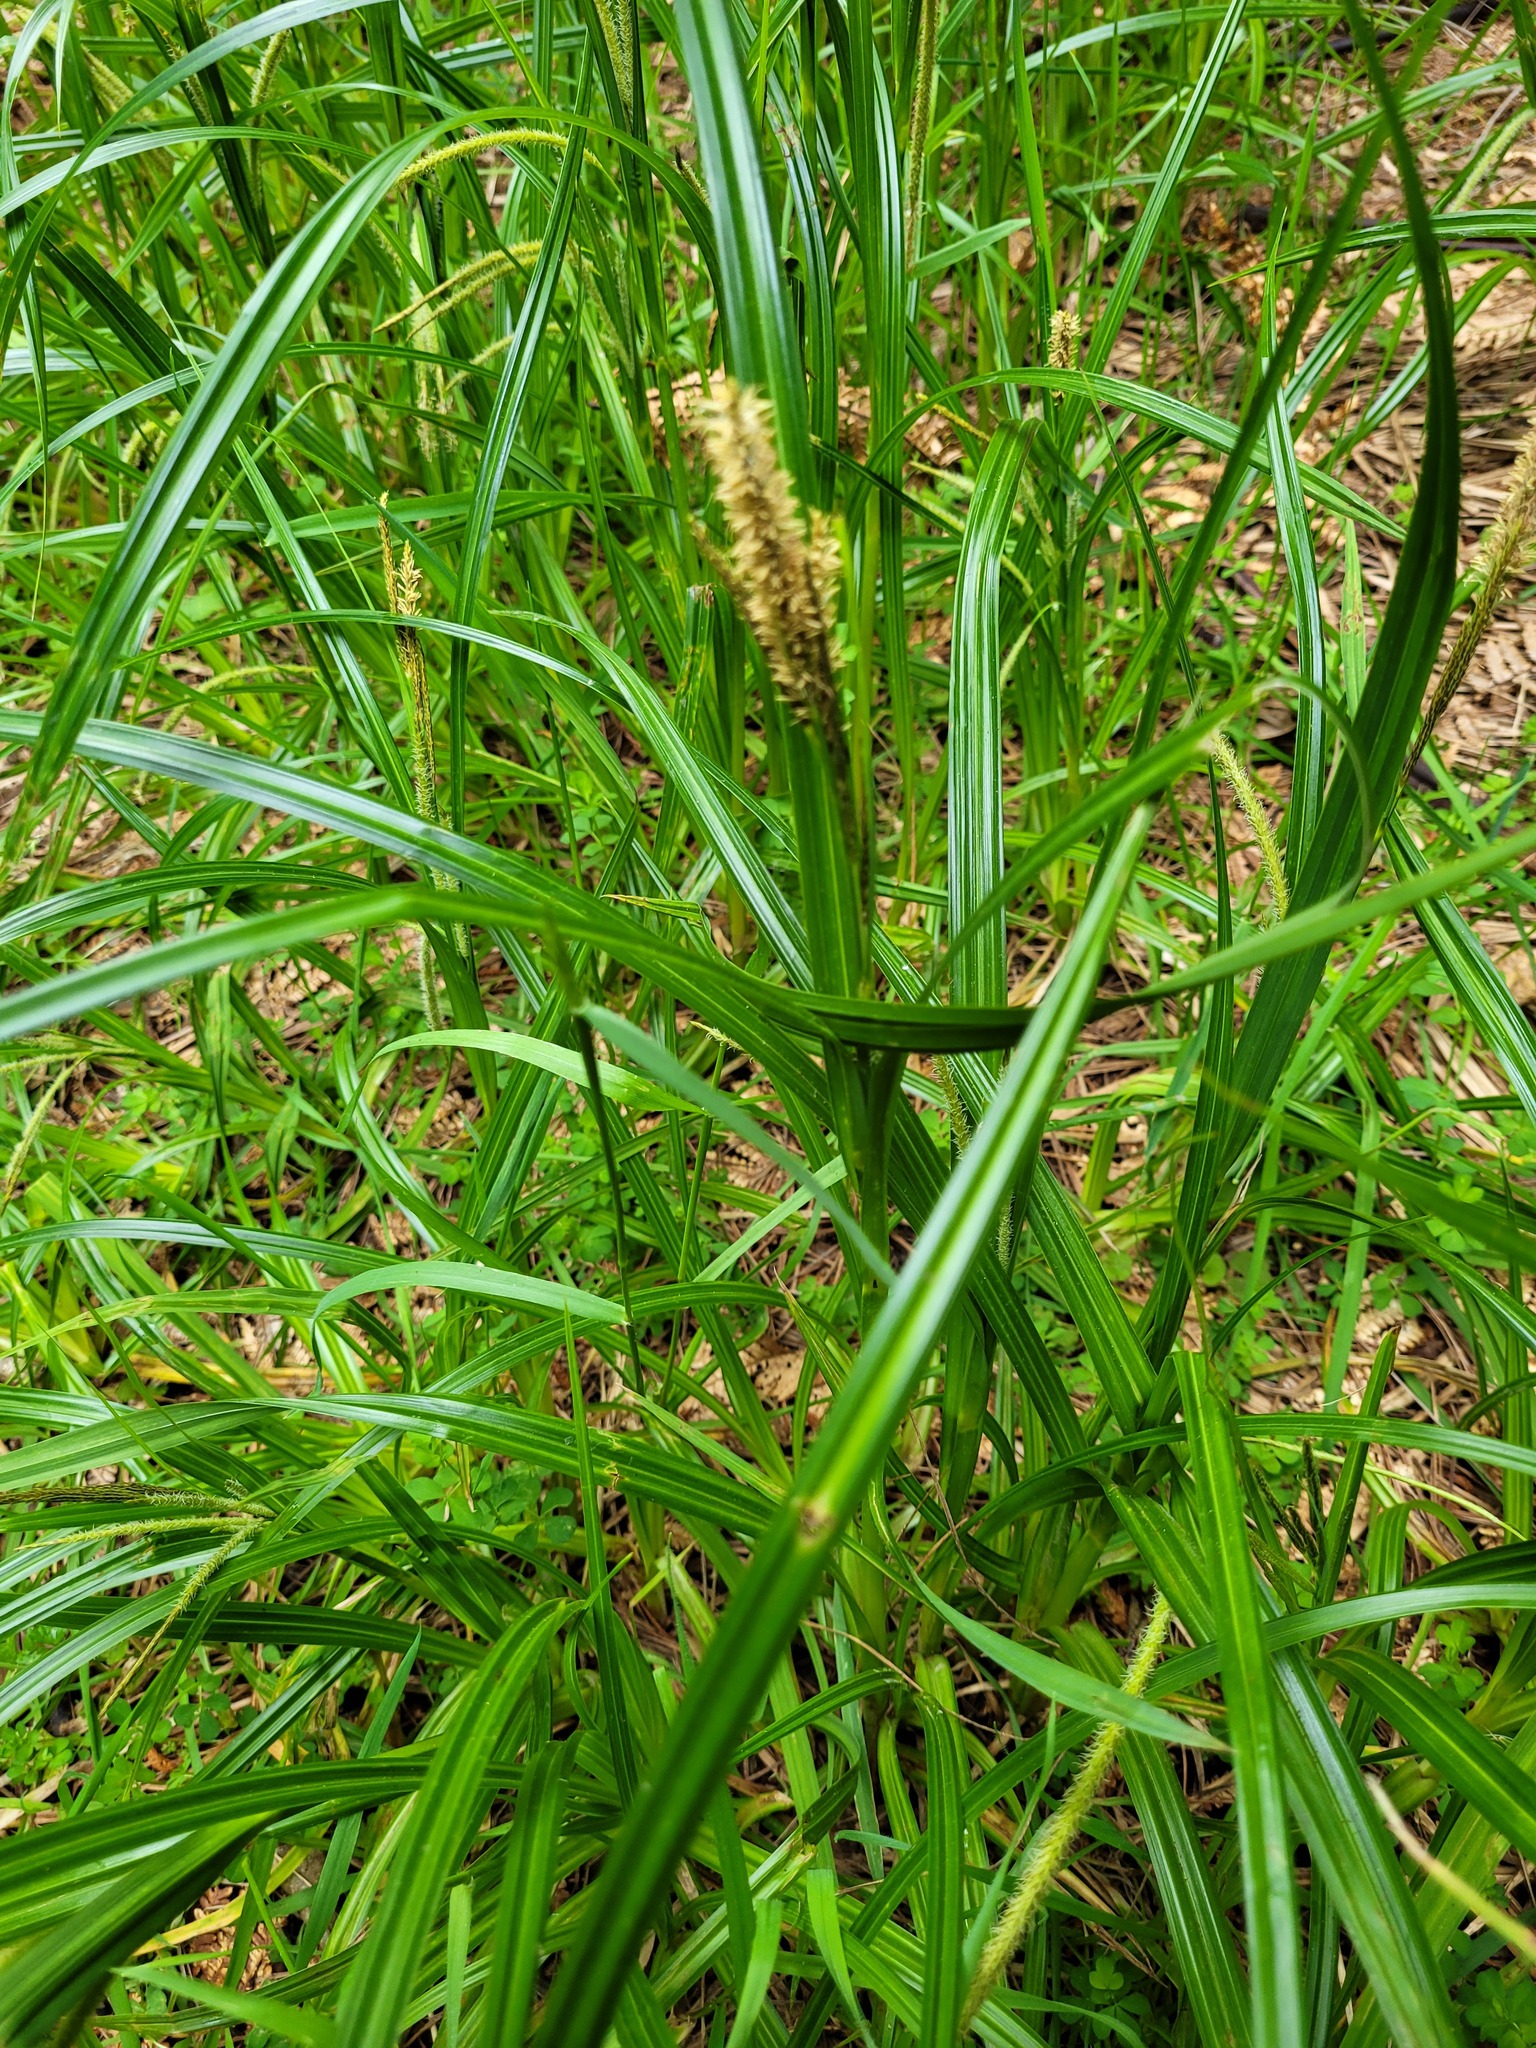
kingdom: Plantae
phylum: Tracheophyta
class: Liliopsida
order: Poales
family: Cyperaceae
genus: Carex
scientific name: Carex uncinata
